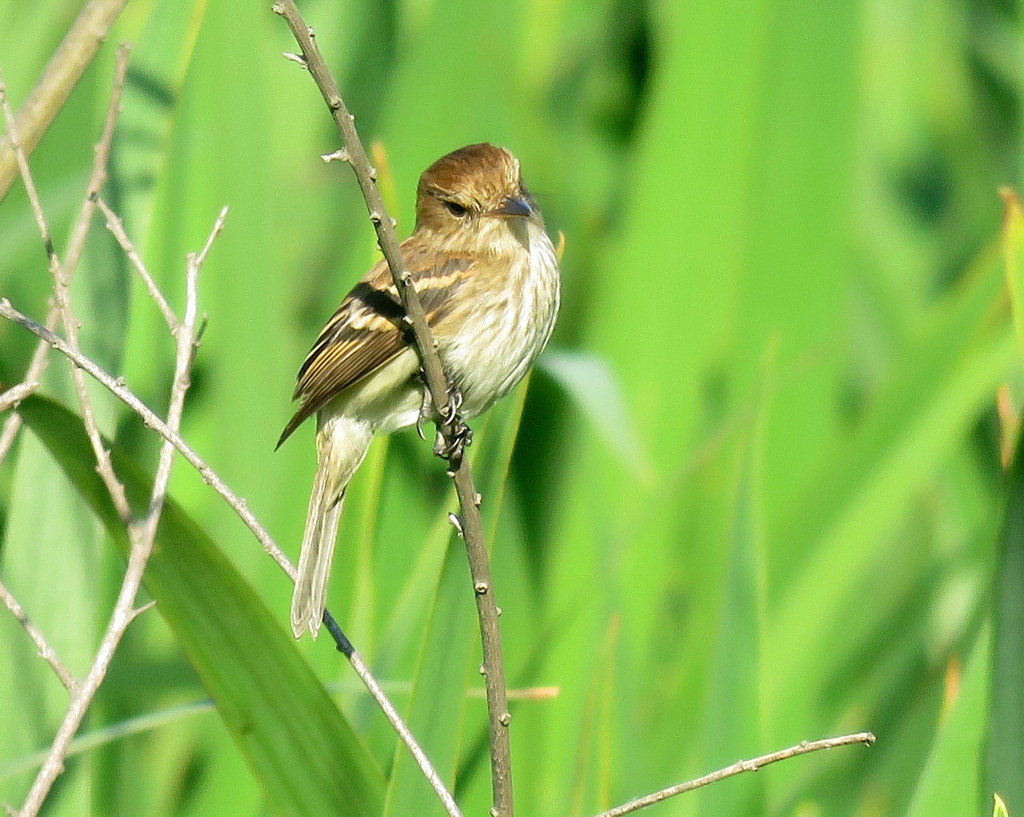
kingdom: Animalia
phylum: Chordata
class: Aves
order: Passeriformes
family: Tyrannidae
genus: Myiophobus
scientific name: Myiophobus fasciatus
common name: Bran-colored flycatcher
